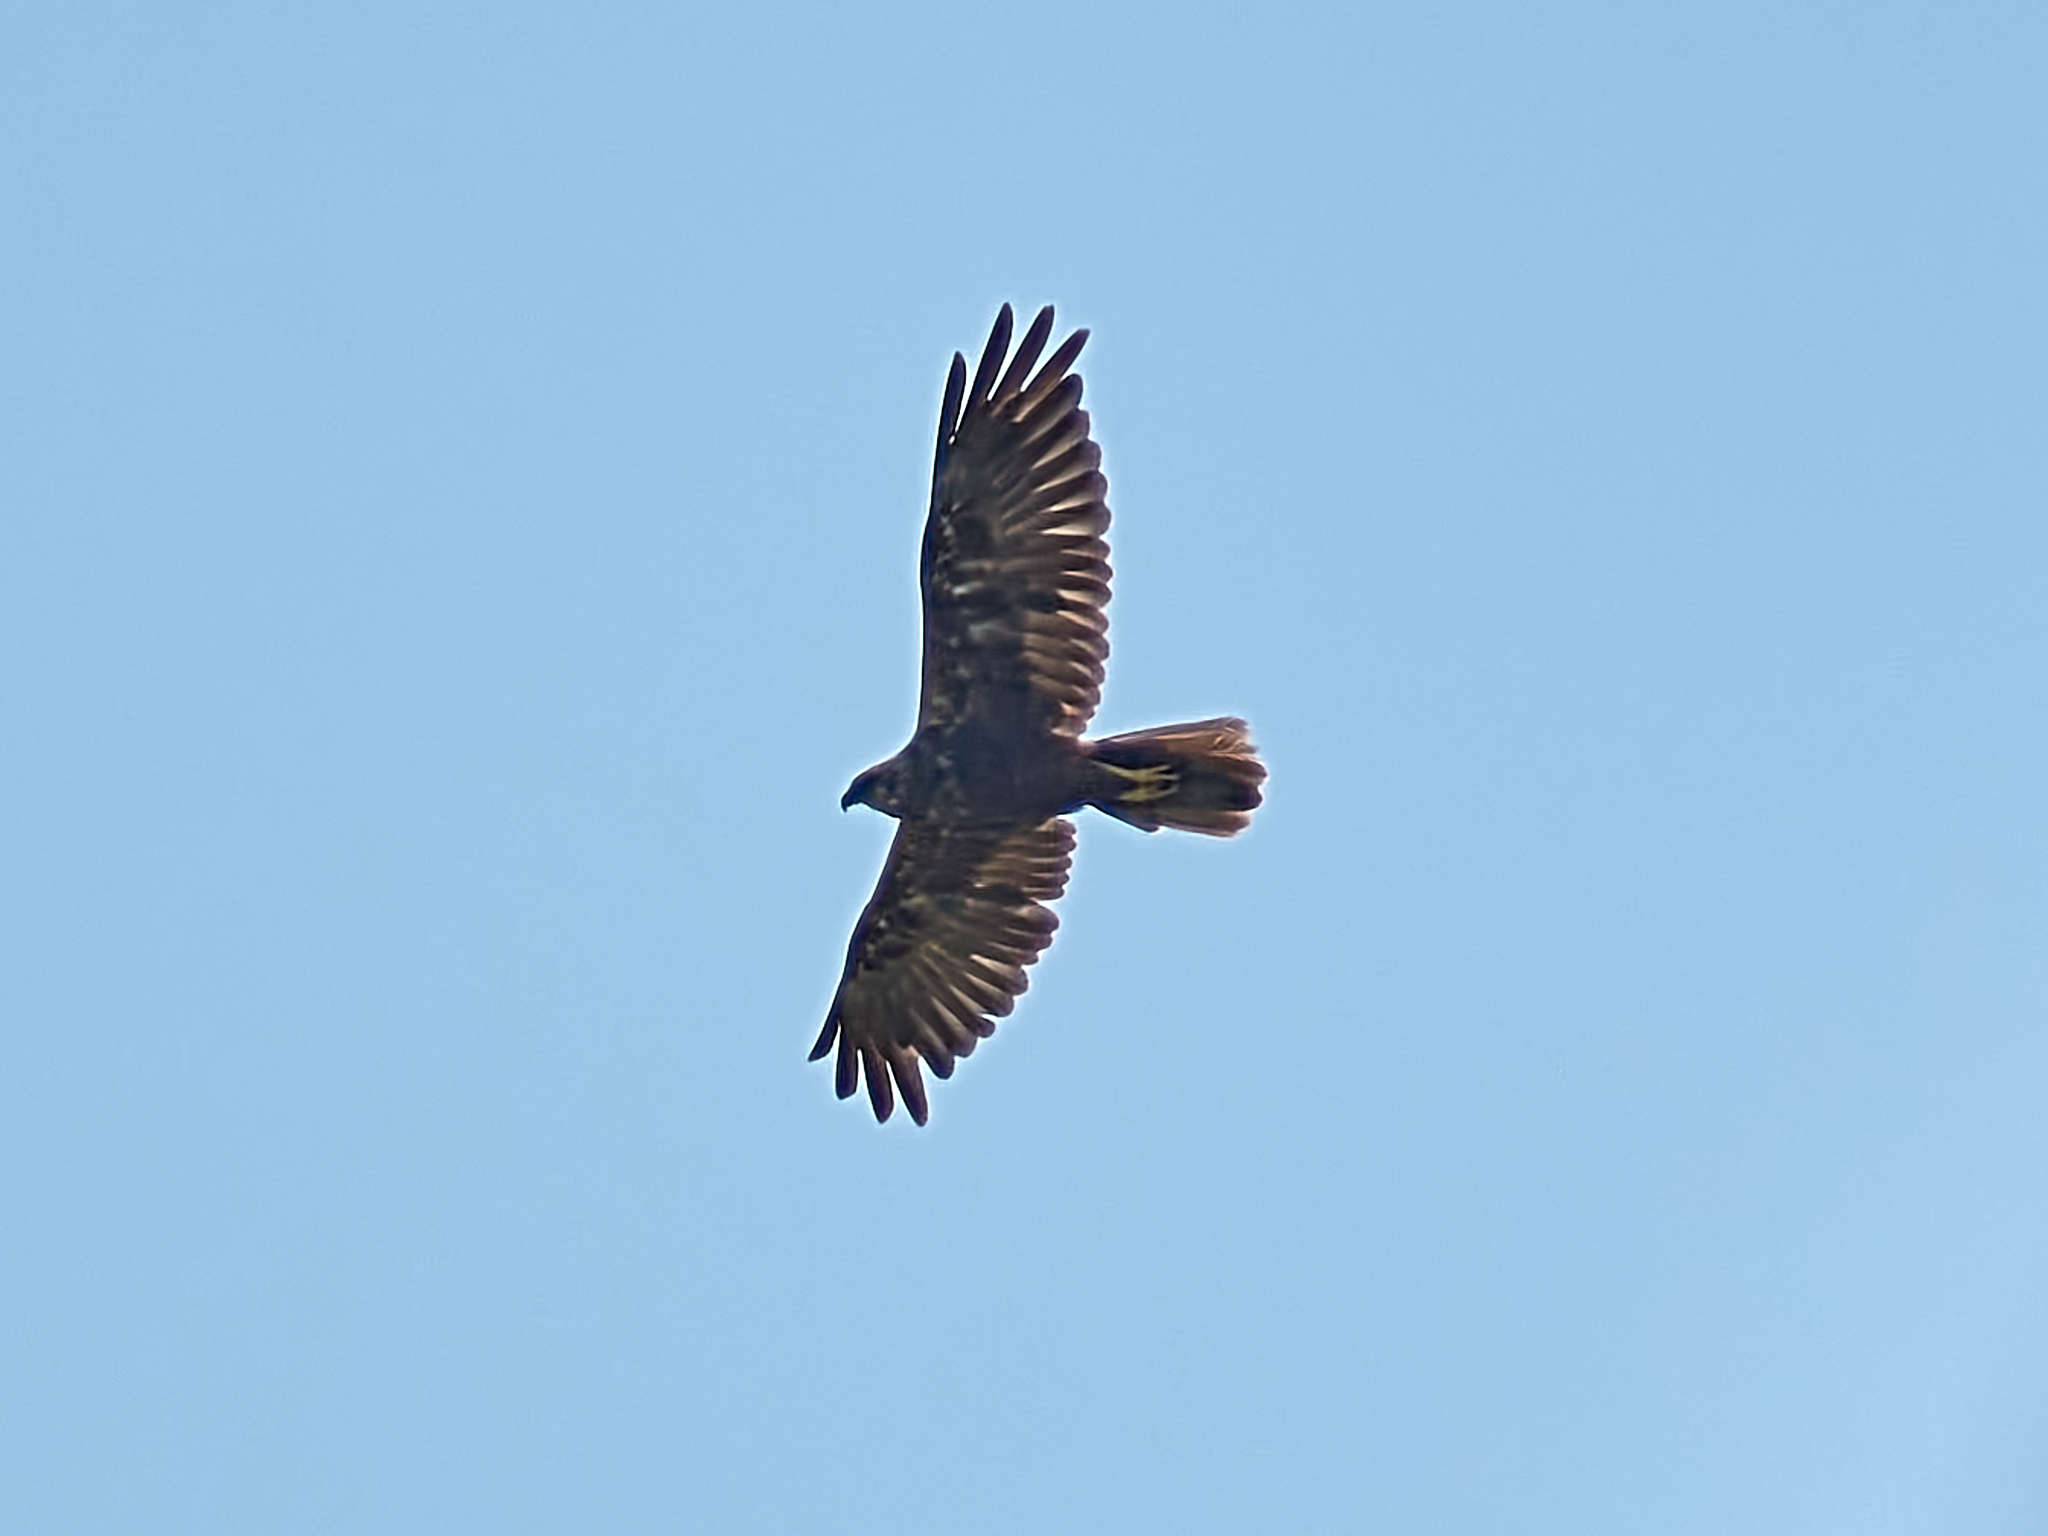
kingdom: Animalia
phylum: Chordata
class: Aves
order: Accipitriformes
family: Accipitridae
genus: Circus
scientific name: Circus aeruginosus
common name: Western marsh harrier
